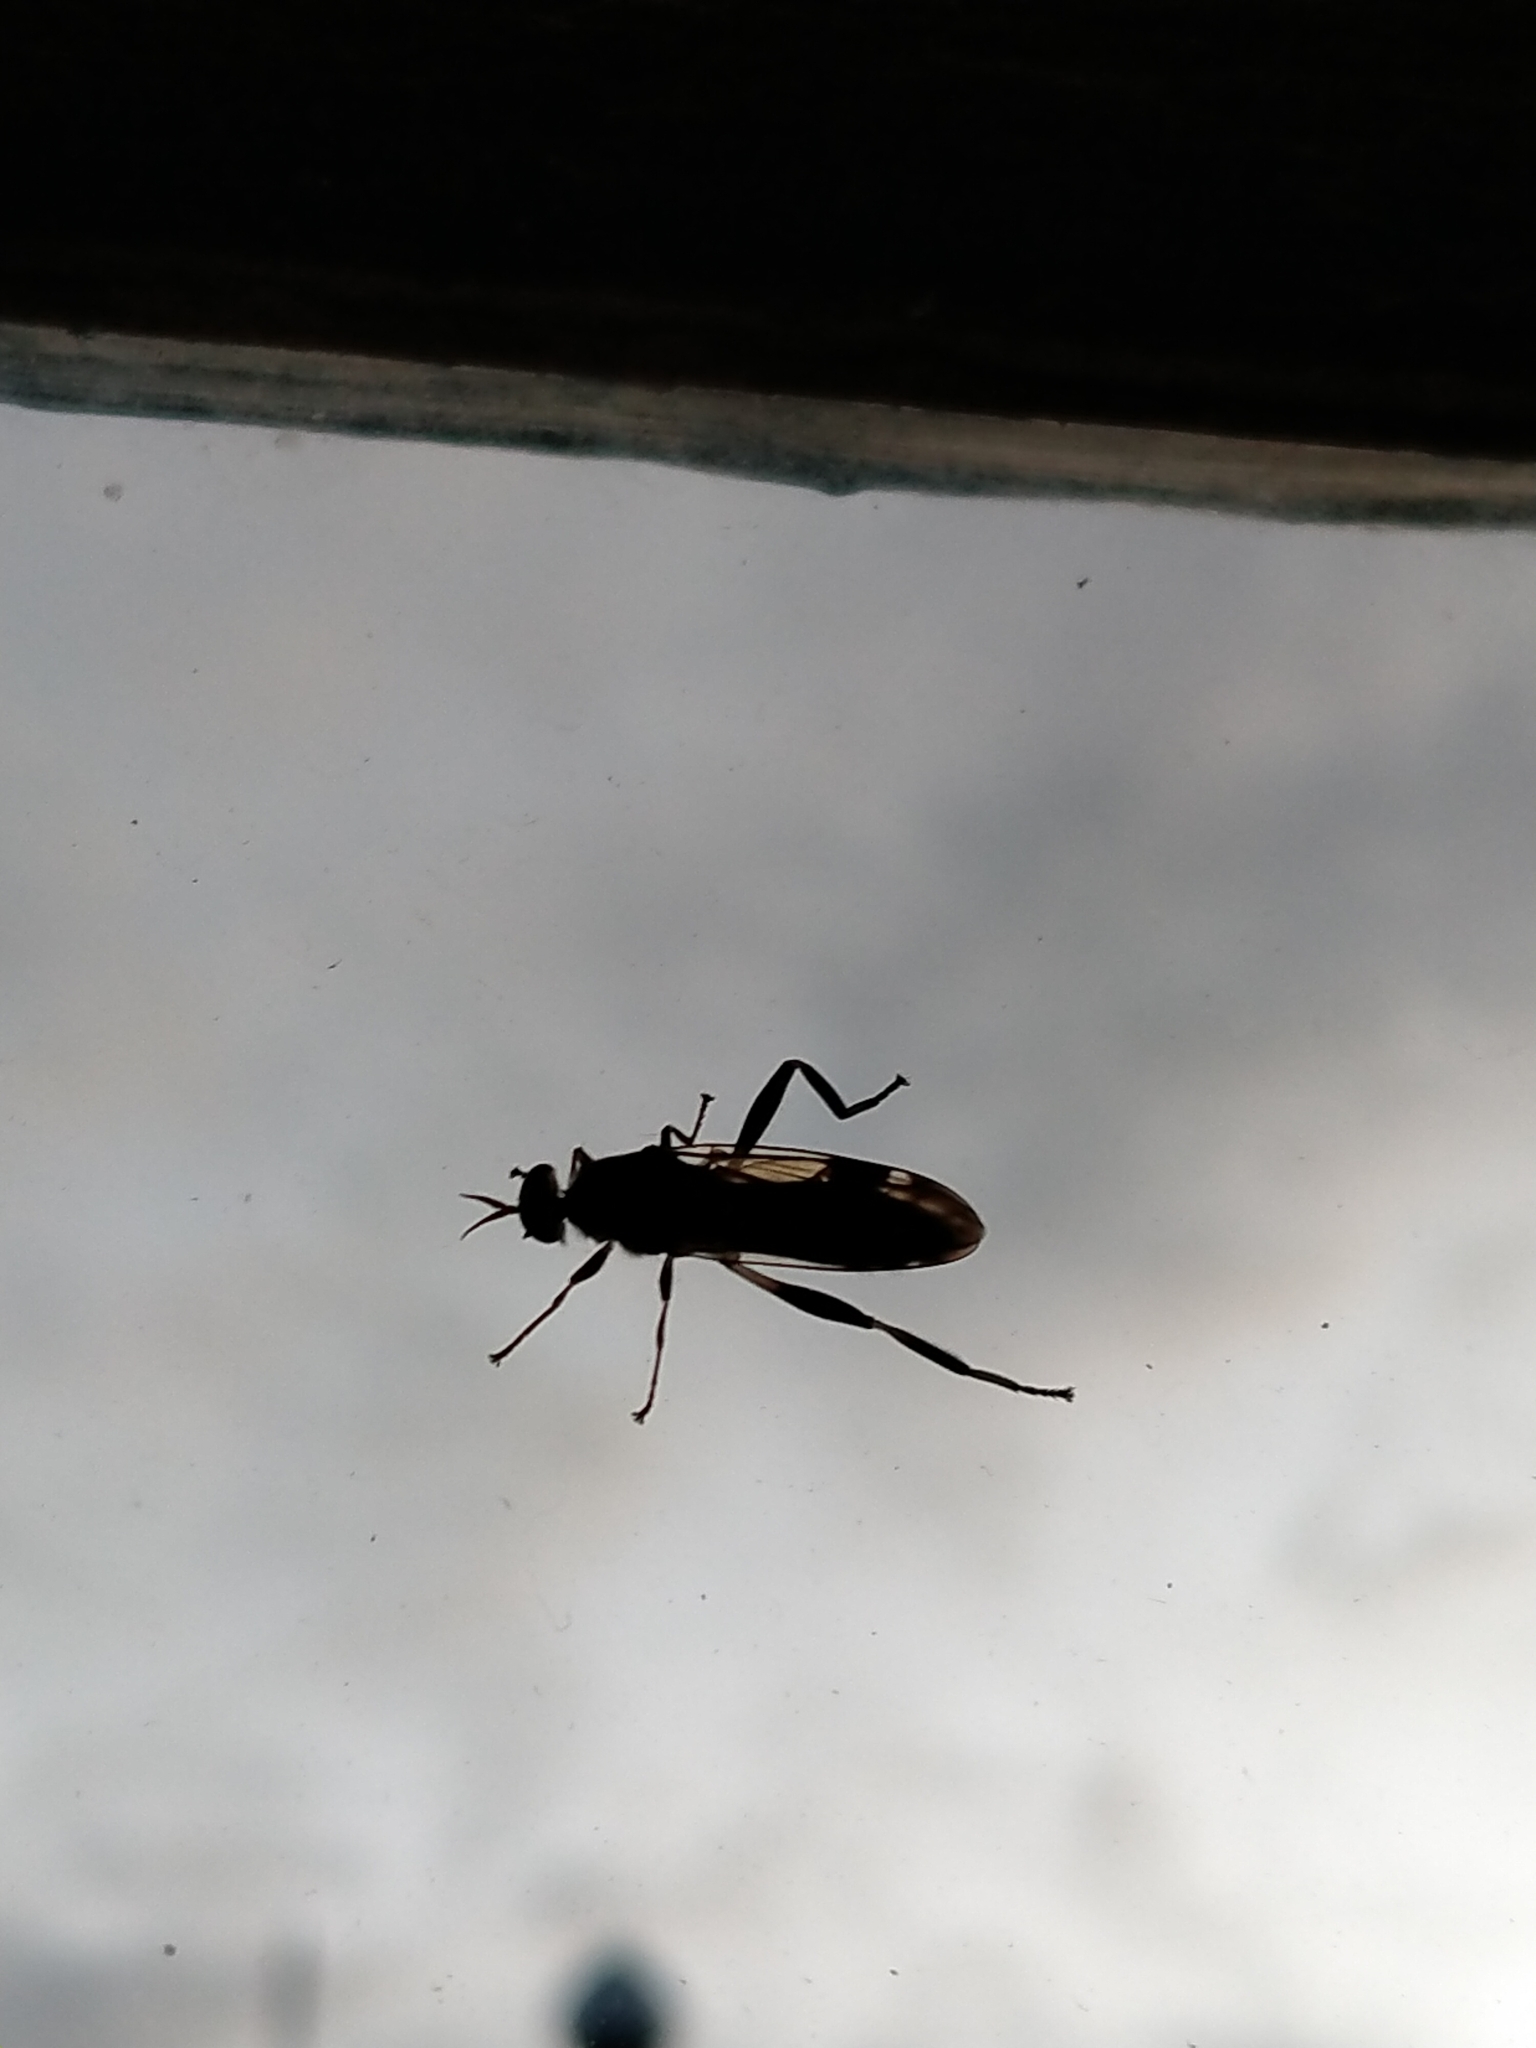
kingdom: Animalia
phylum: Arthropoda
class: Insecta
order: Diptera
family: Stratiomyidae
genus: Exaireta
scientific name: Exaireta spinigera
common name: Blue soldier fly
